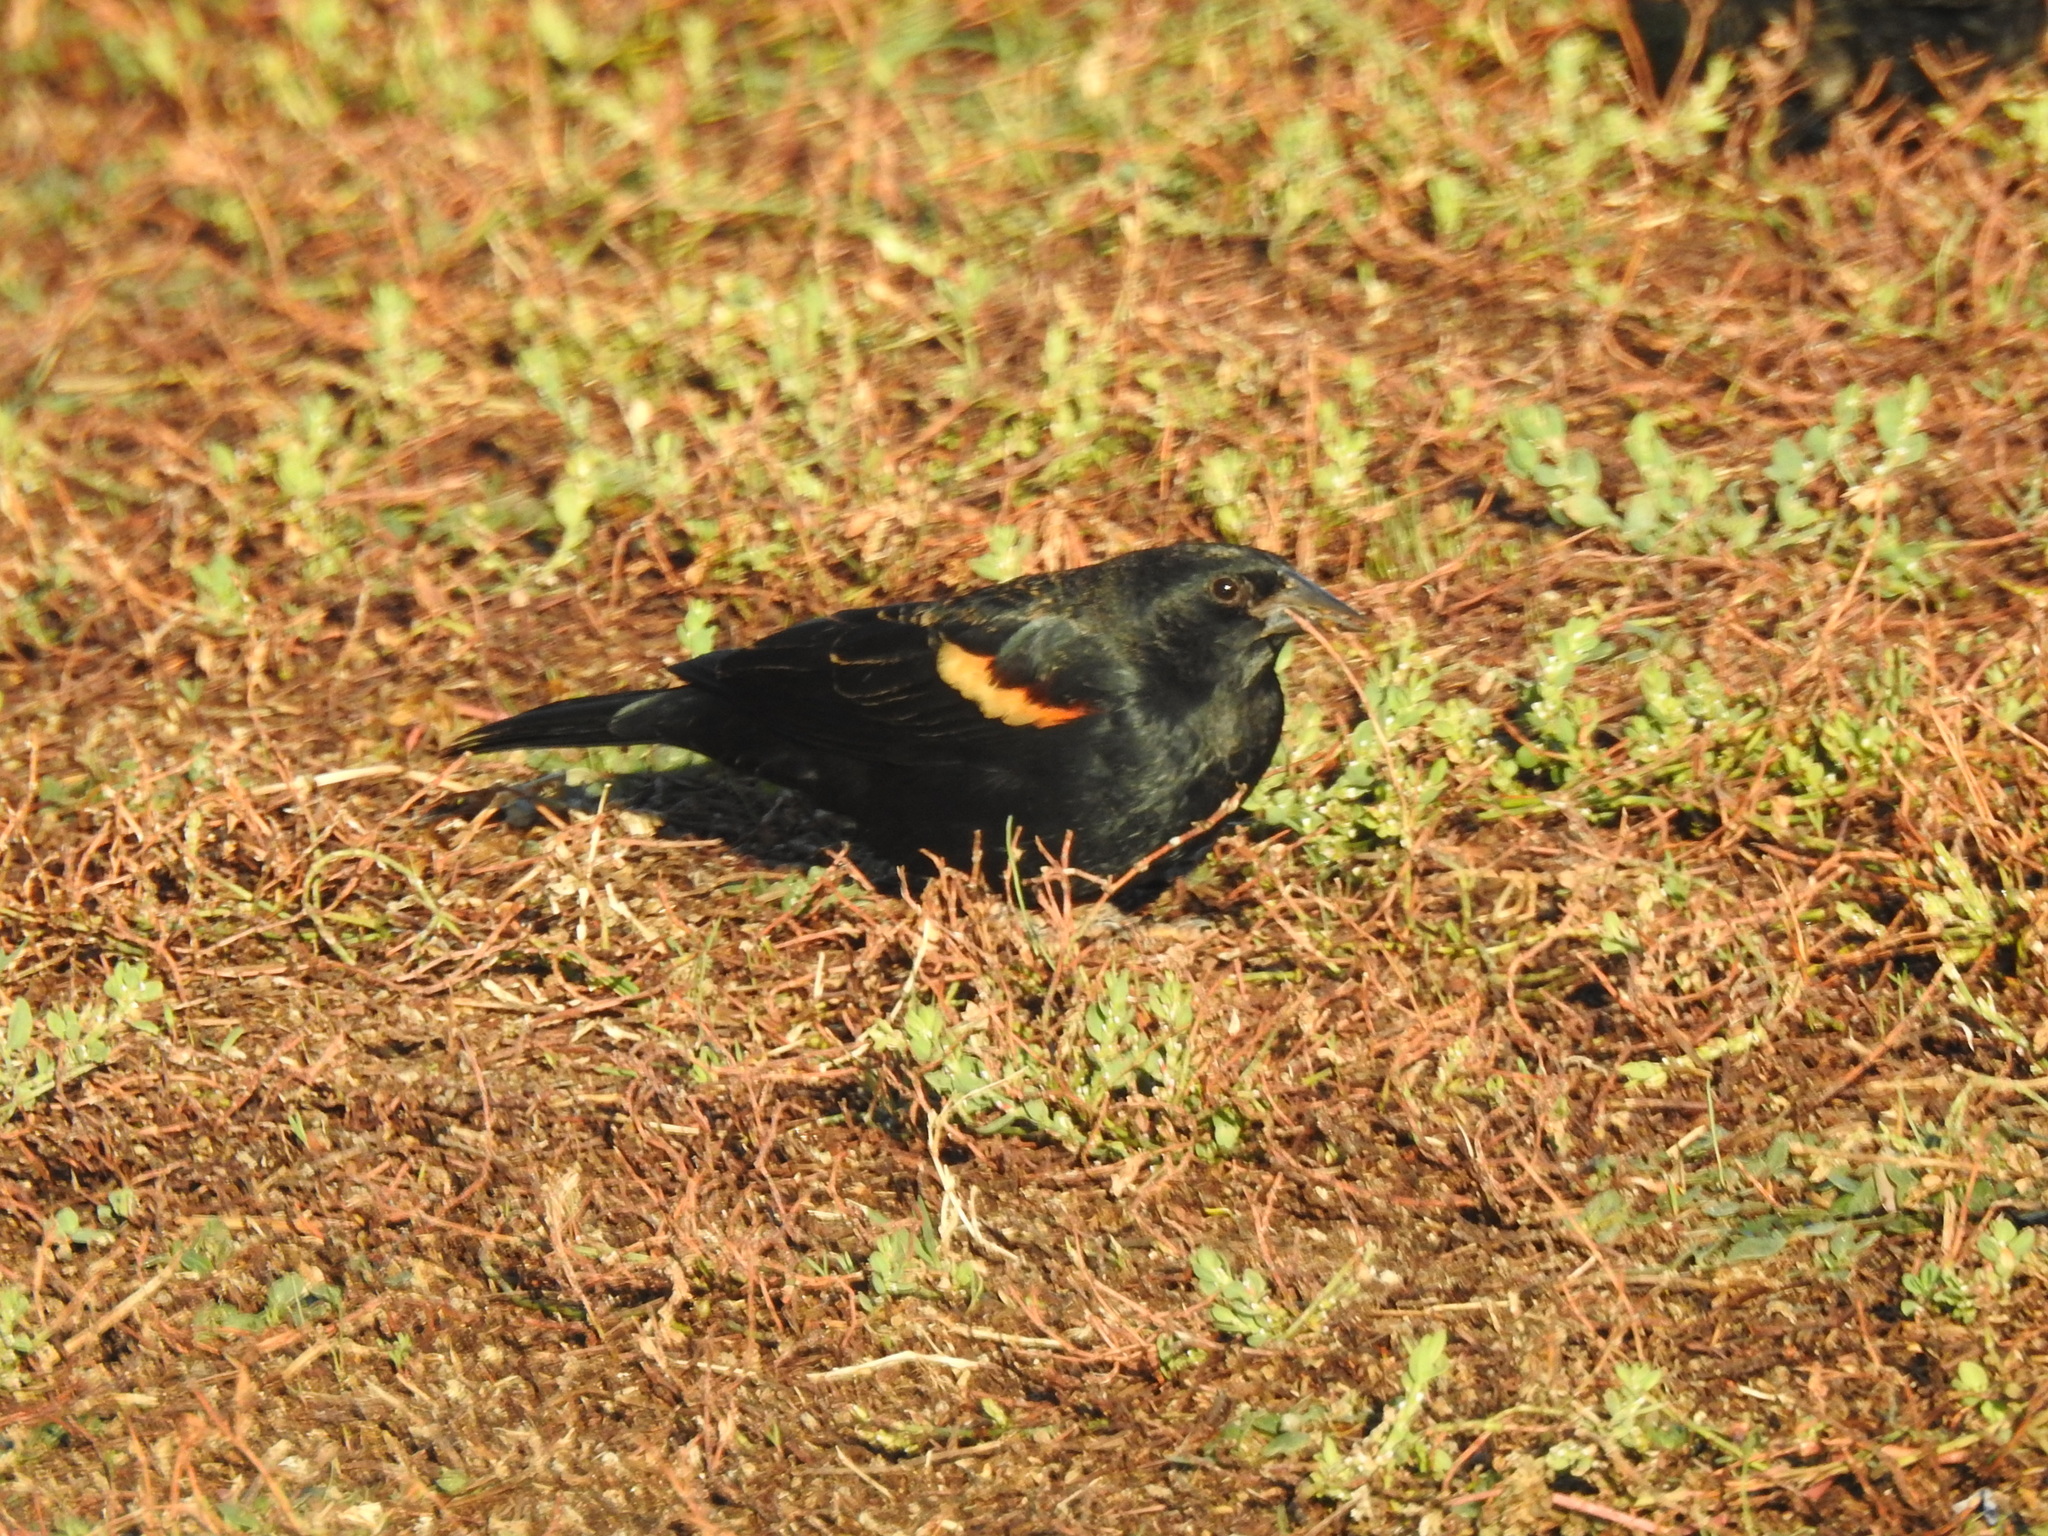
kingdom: Animalia
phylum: Chordata
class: Aves
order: Passeriformes
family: Icteridae
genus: Agelaius
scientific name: Agelaius phoeniceus
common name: Red-winged blackbird
